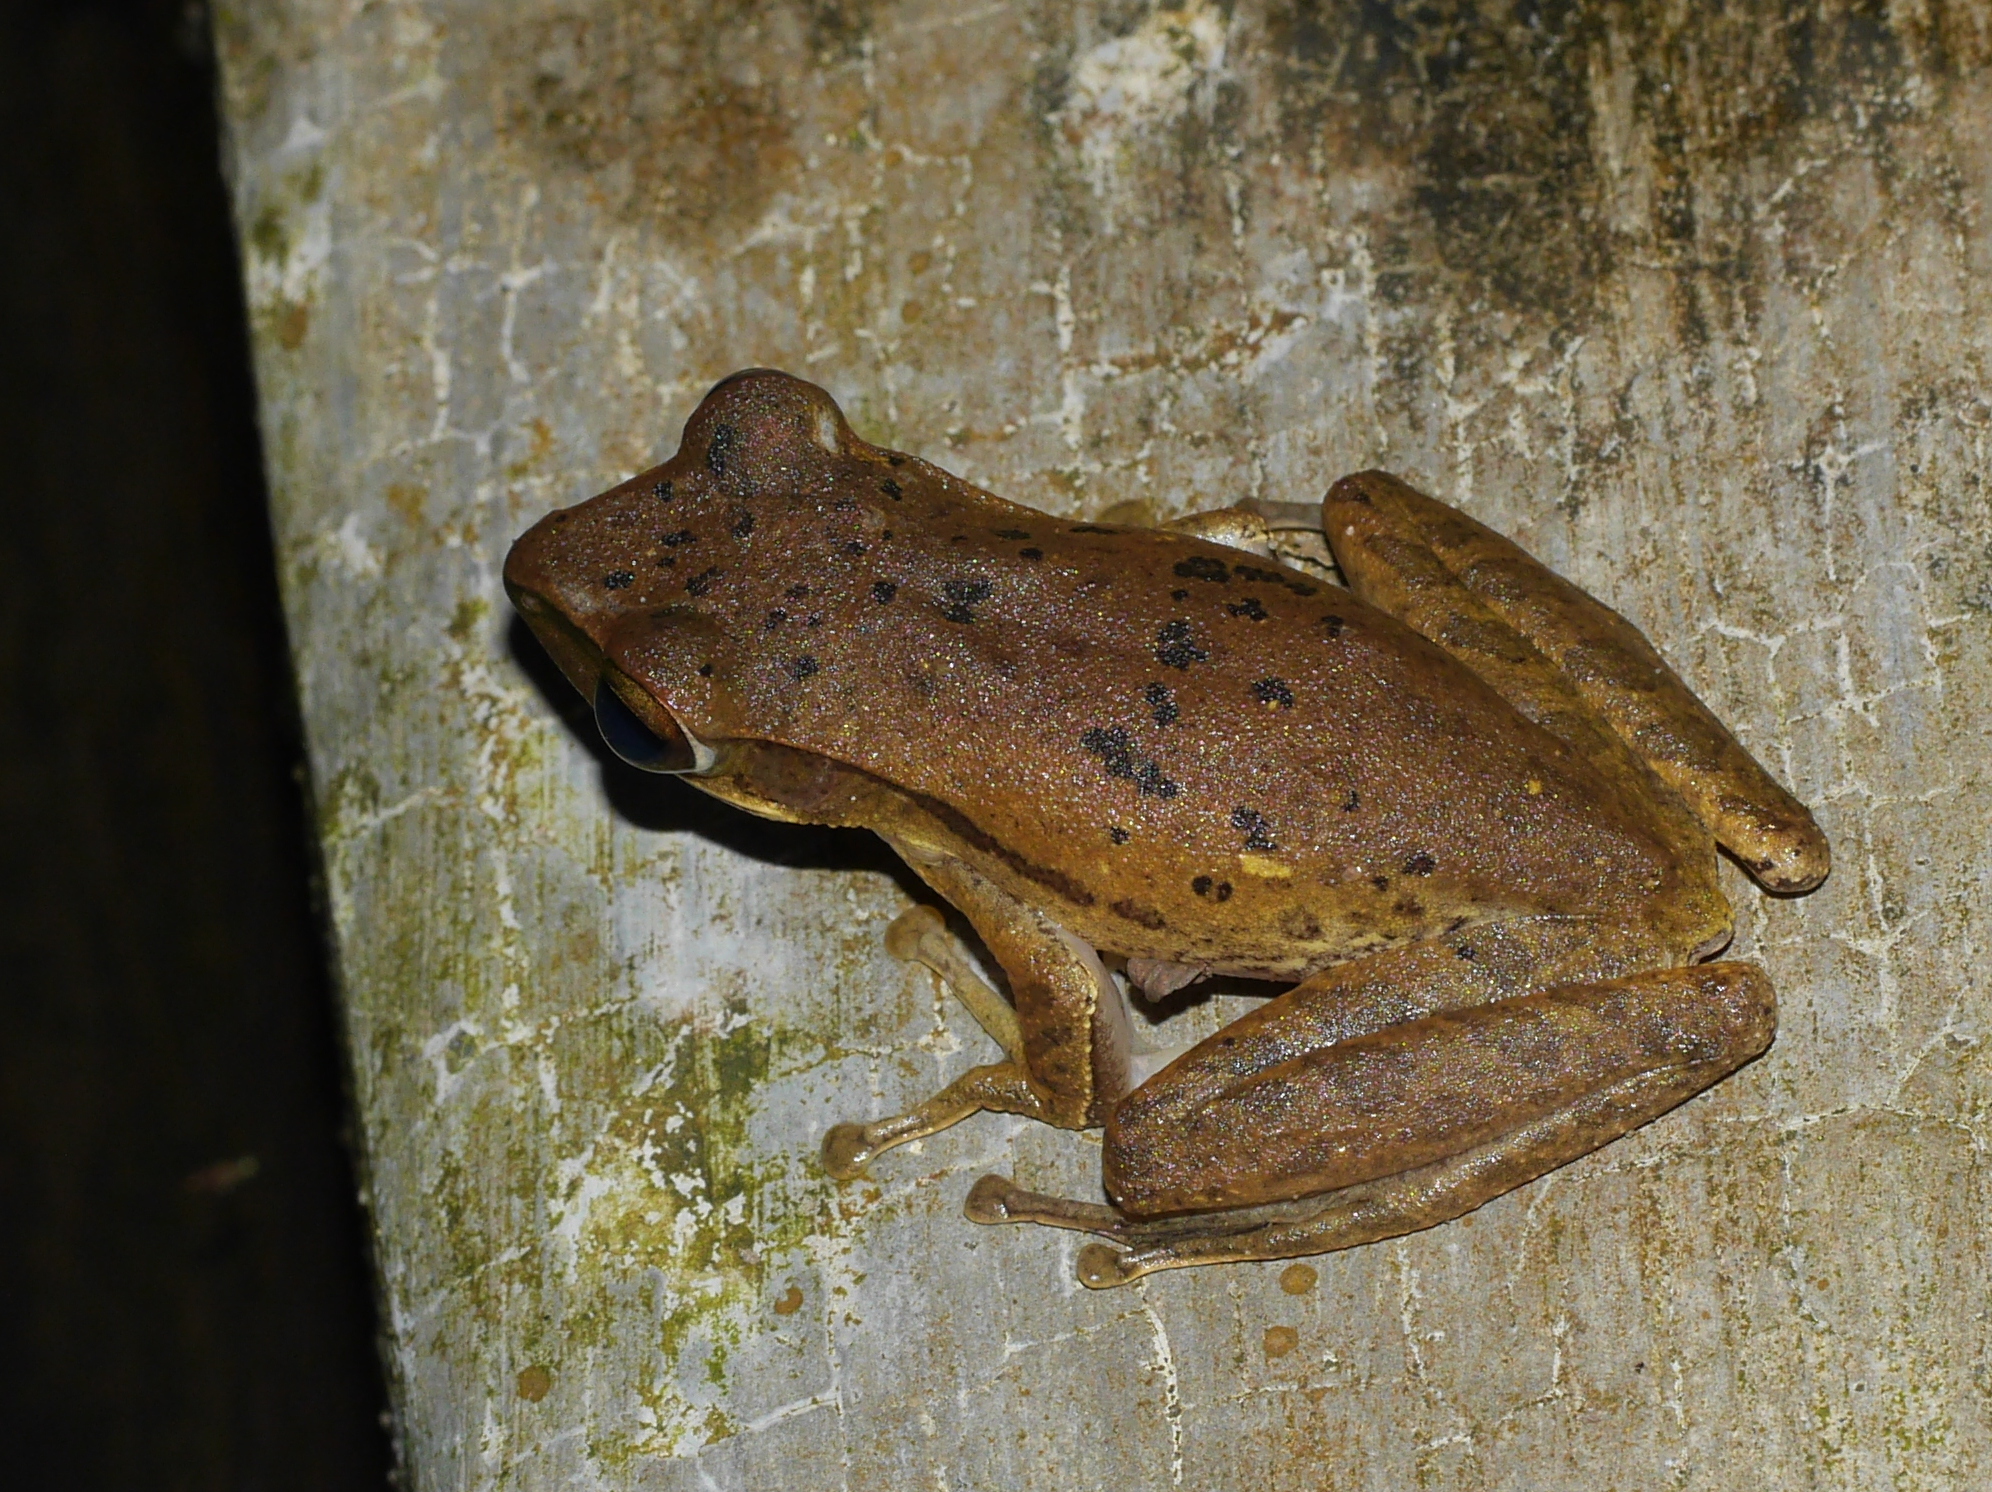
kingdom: Animalia
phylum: Chordata
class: Amphibia
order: Anura
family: Rhacophoridae
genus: Polypedates
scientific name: Polypedates leucomystax
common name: Common tree frog/four-lined tree frog
